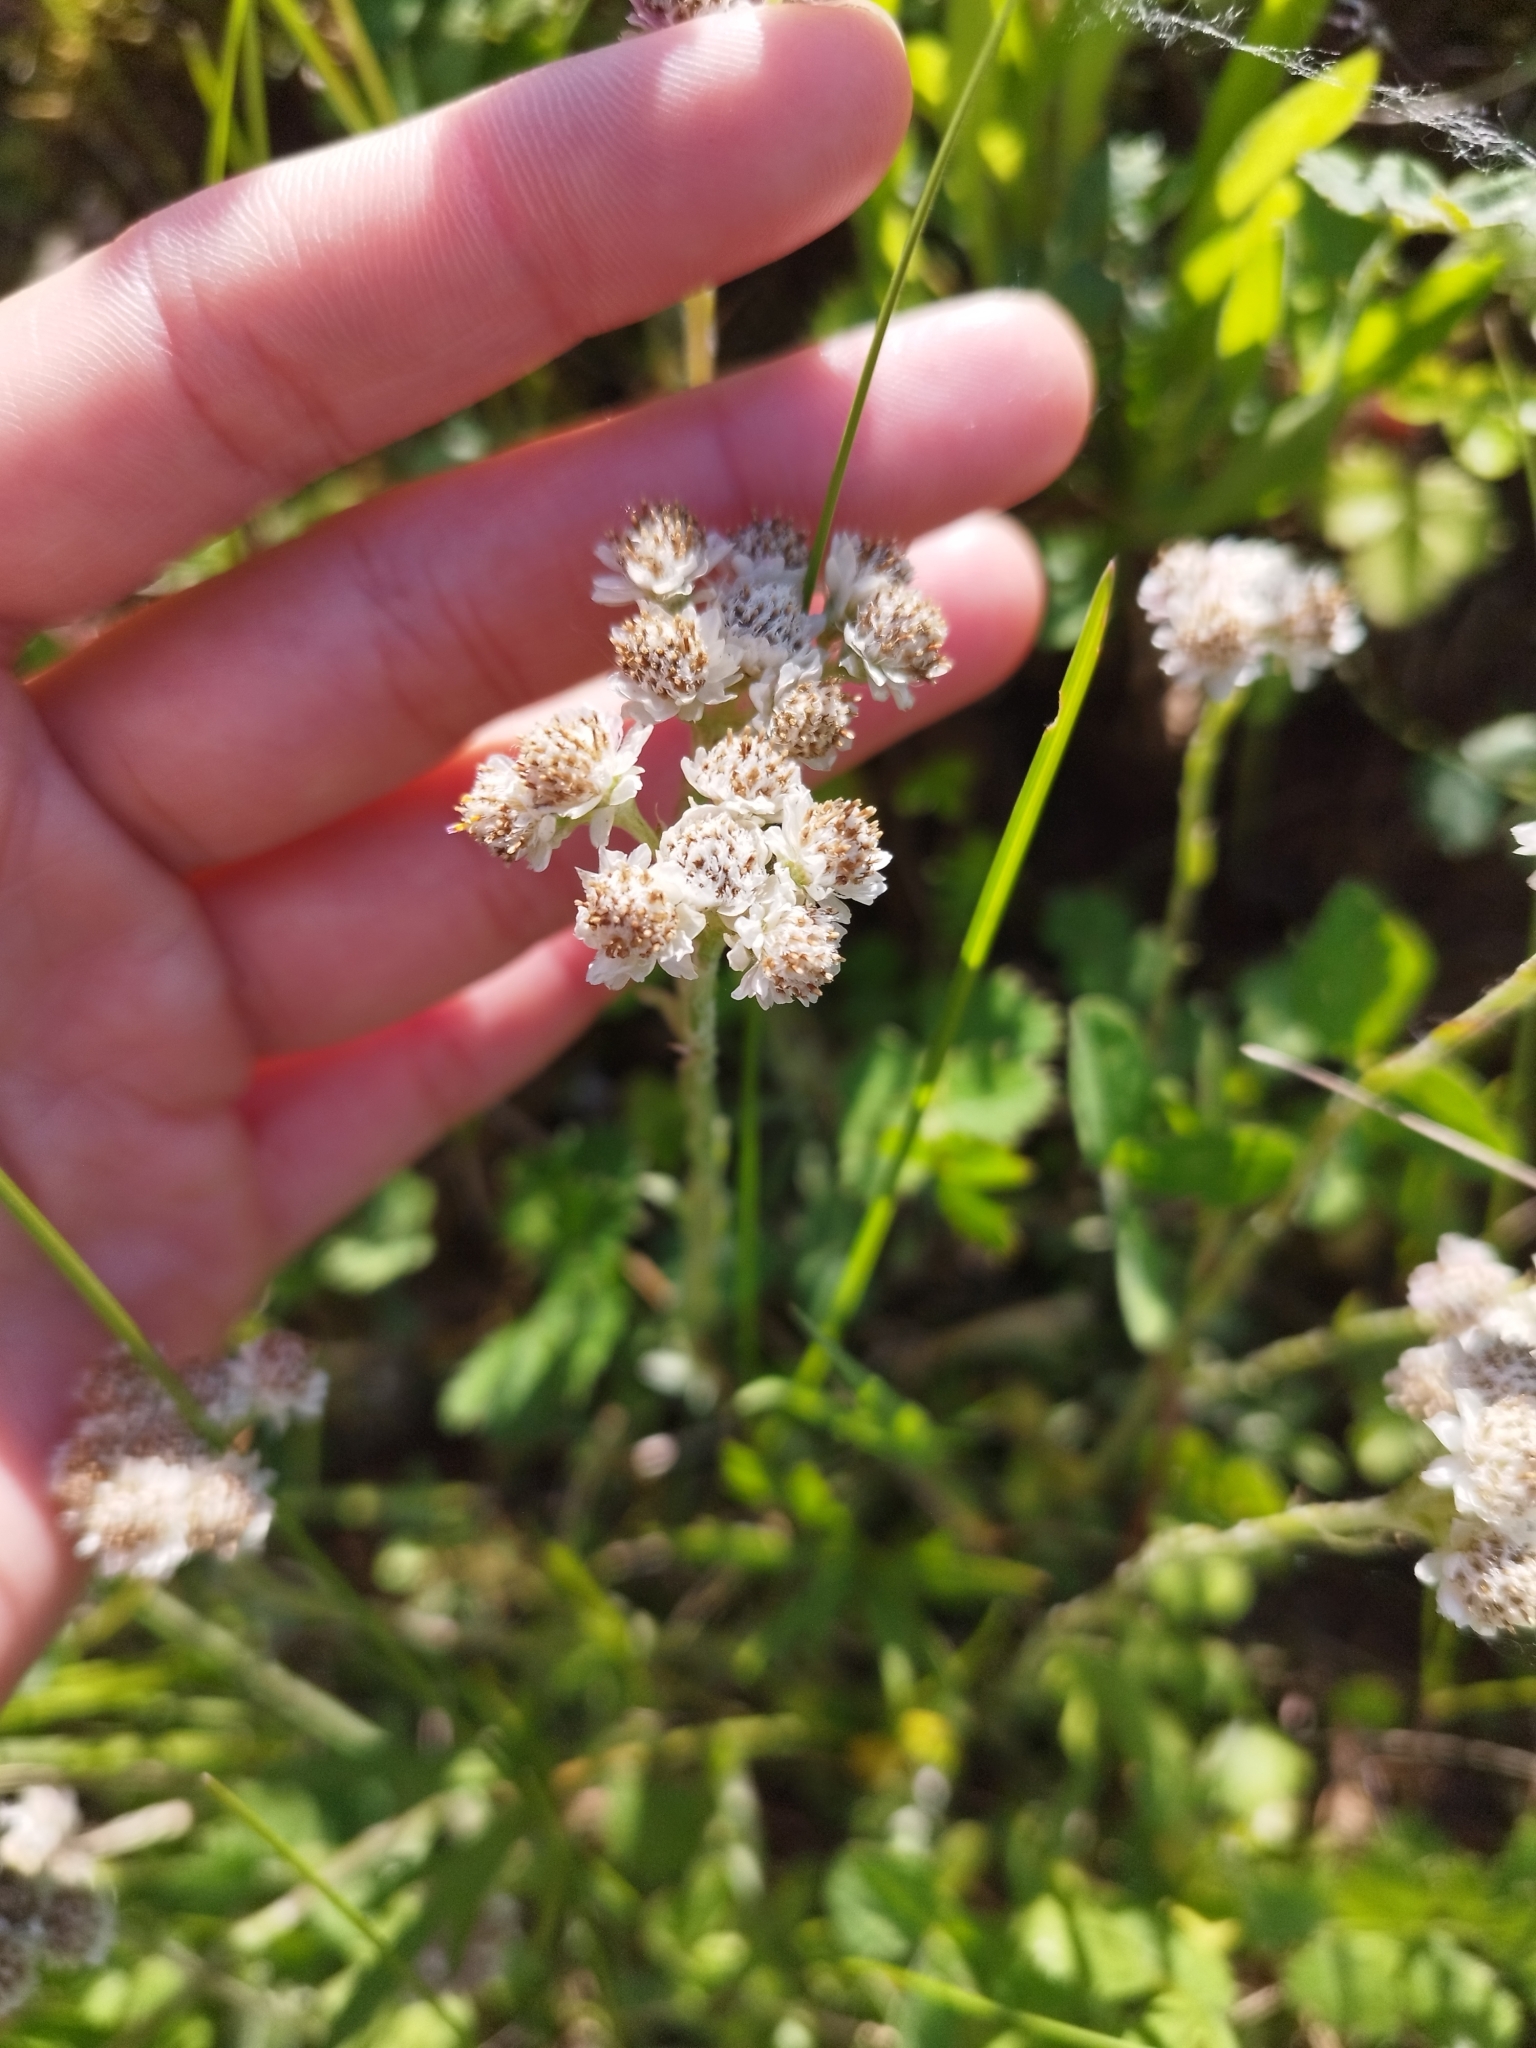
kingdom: Plantae
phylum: Tracheophyta
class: Magnoliopsida
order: Asterales
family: Asteraceae
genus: Antennaria
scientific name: Antennaria dioica
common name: Mountain everlasting
